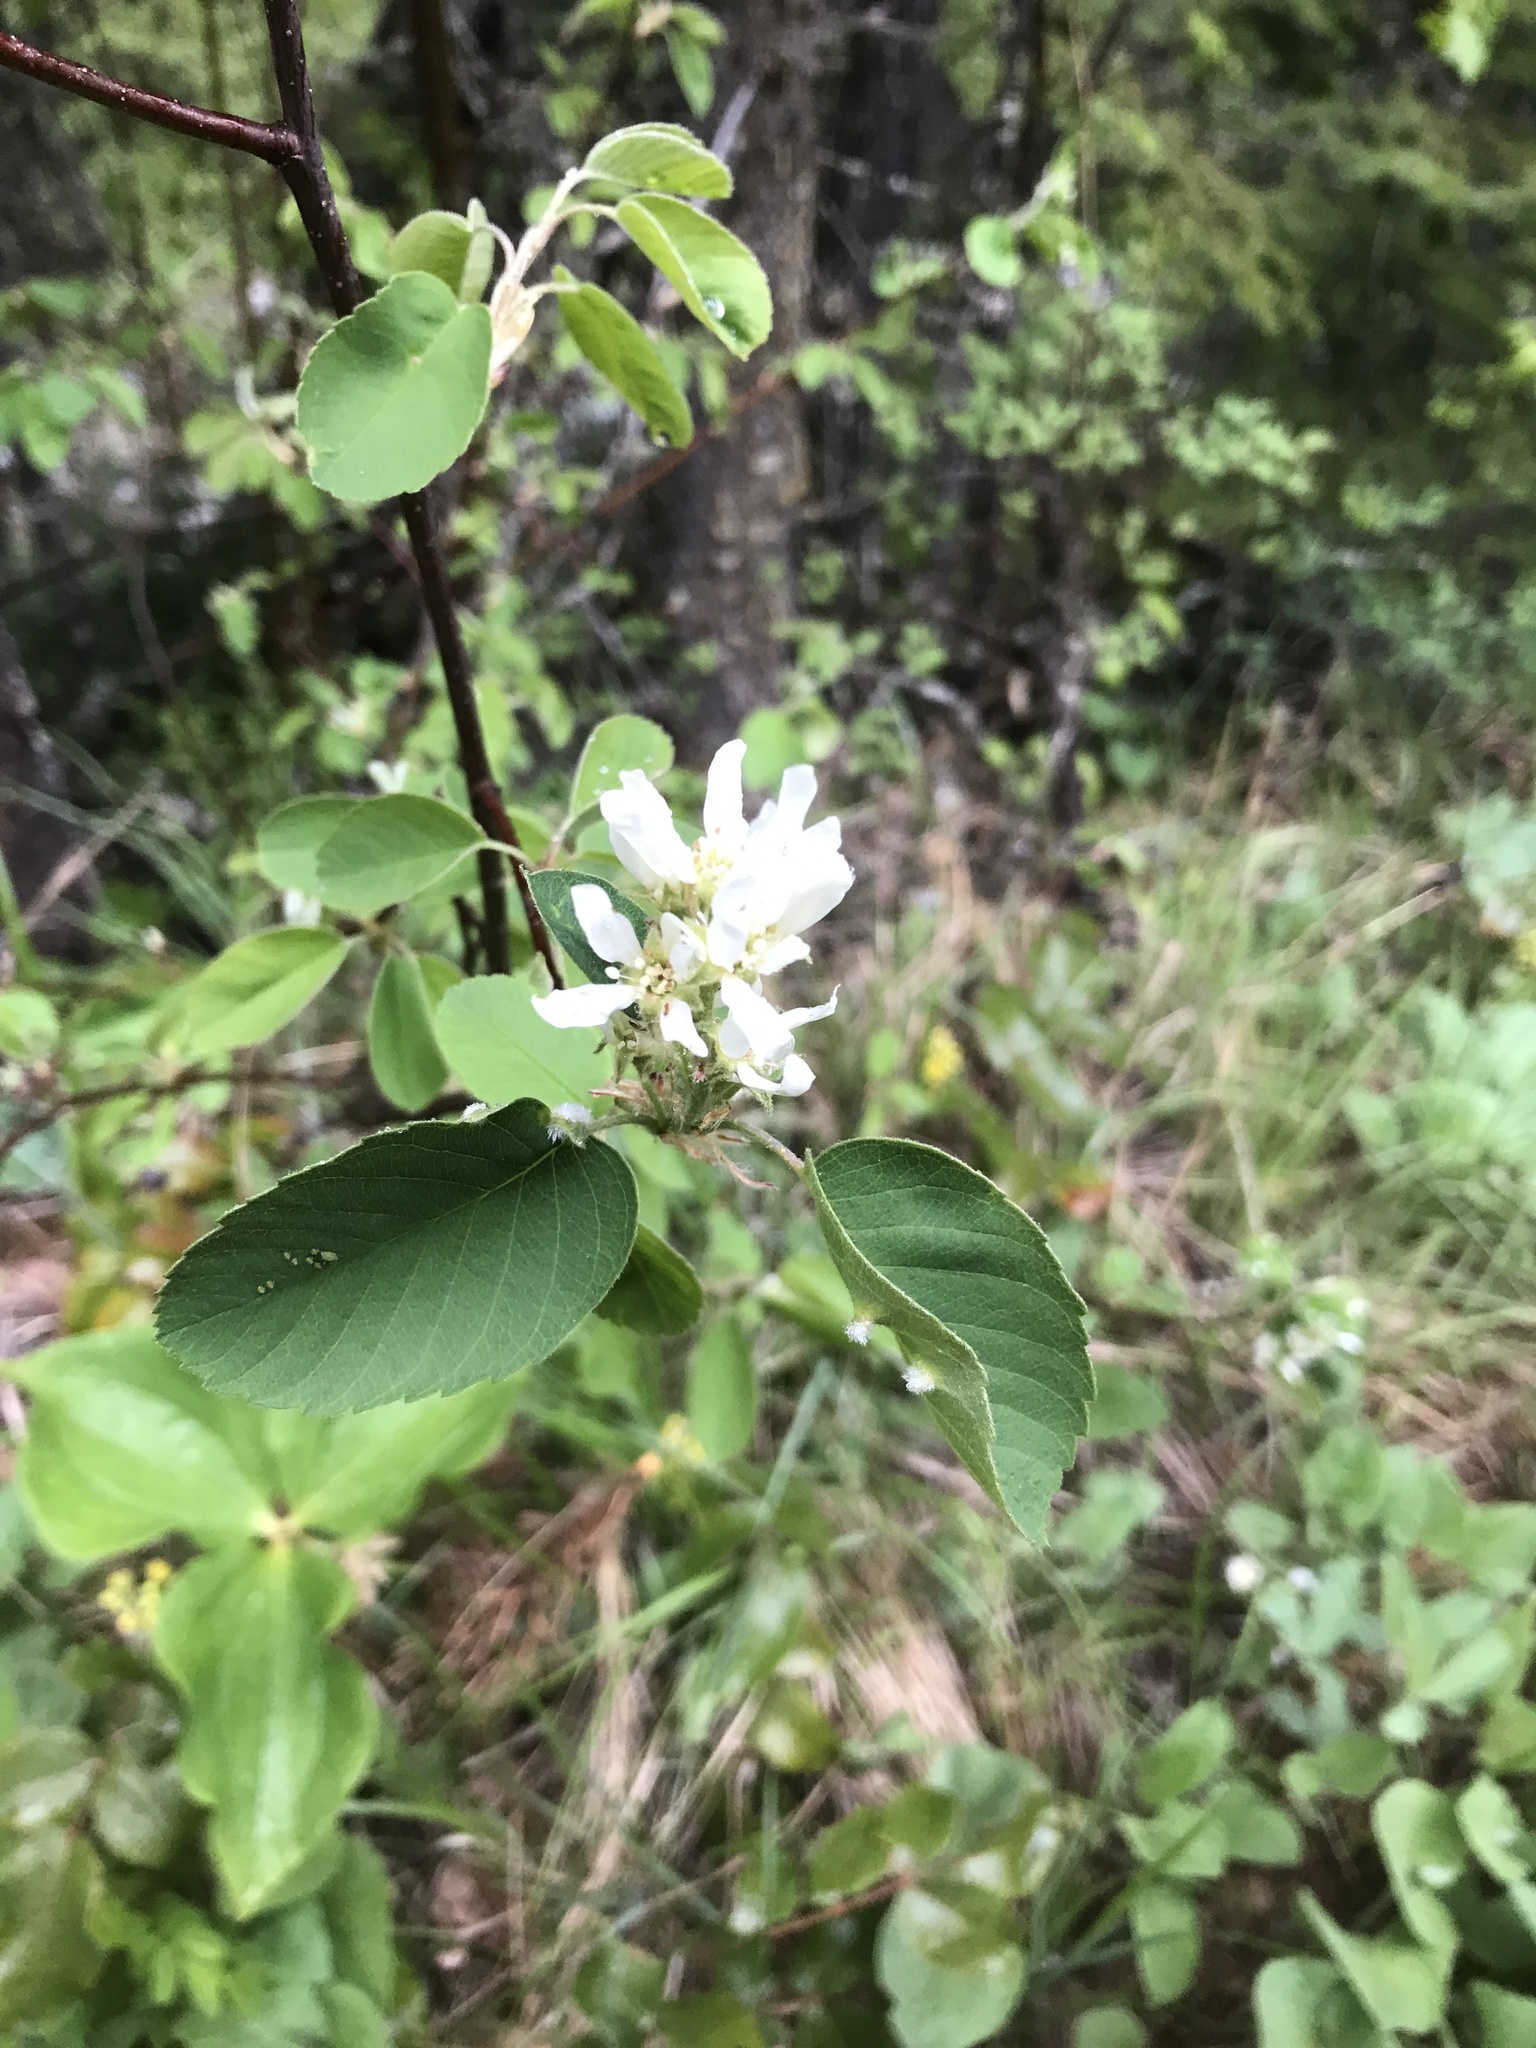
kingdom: Plantae
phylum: Tracheophyta
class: Magnoliopsida
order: Rosales
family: Rosaceae
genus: Amelanchier
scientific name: Amelanchier alnifolia
